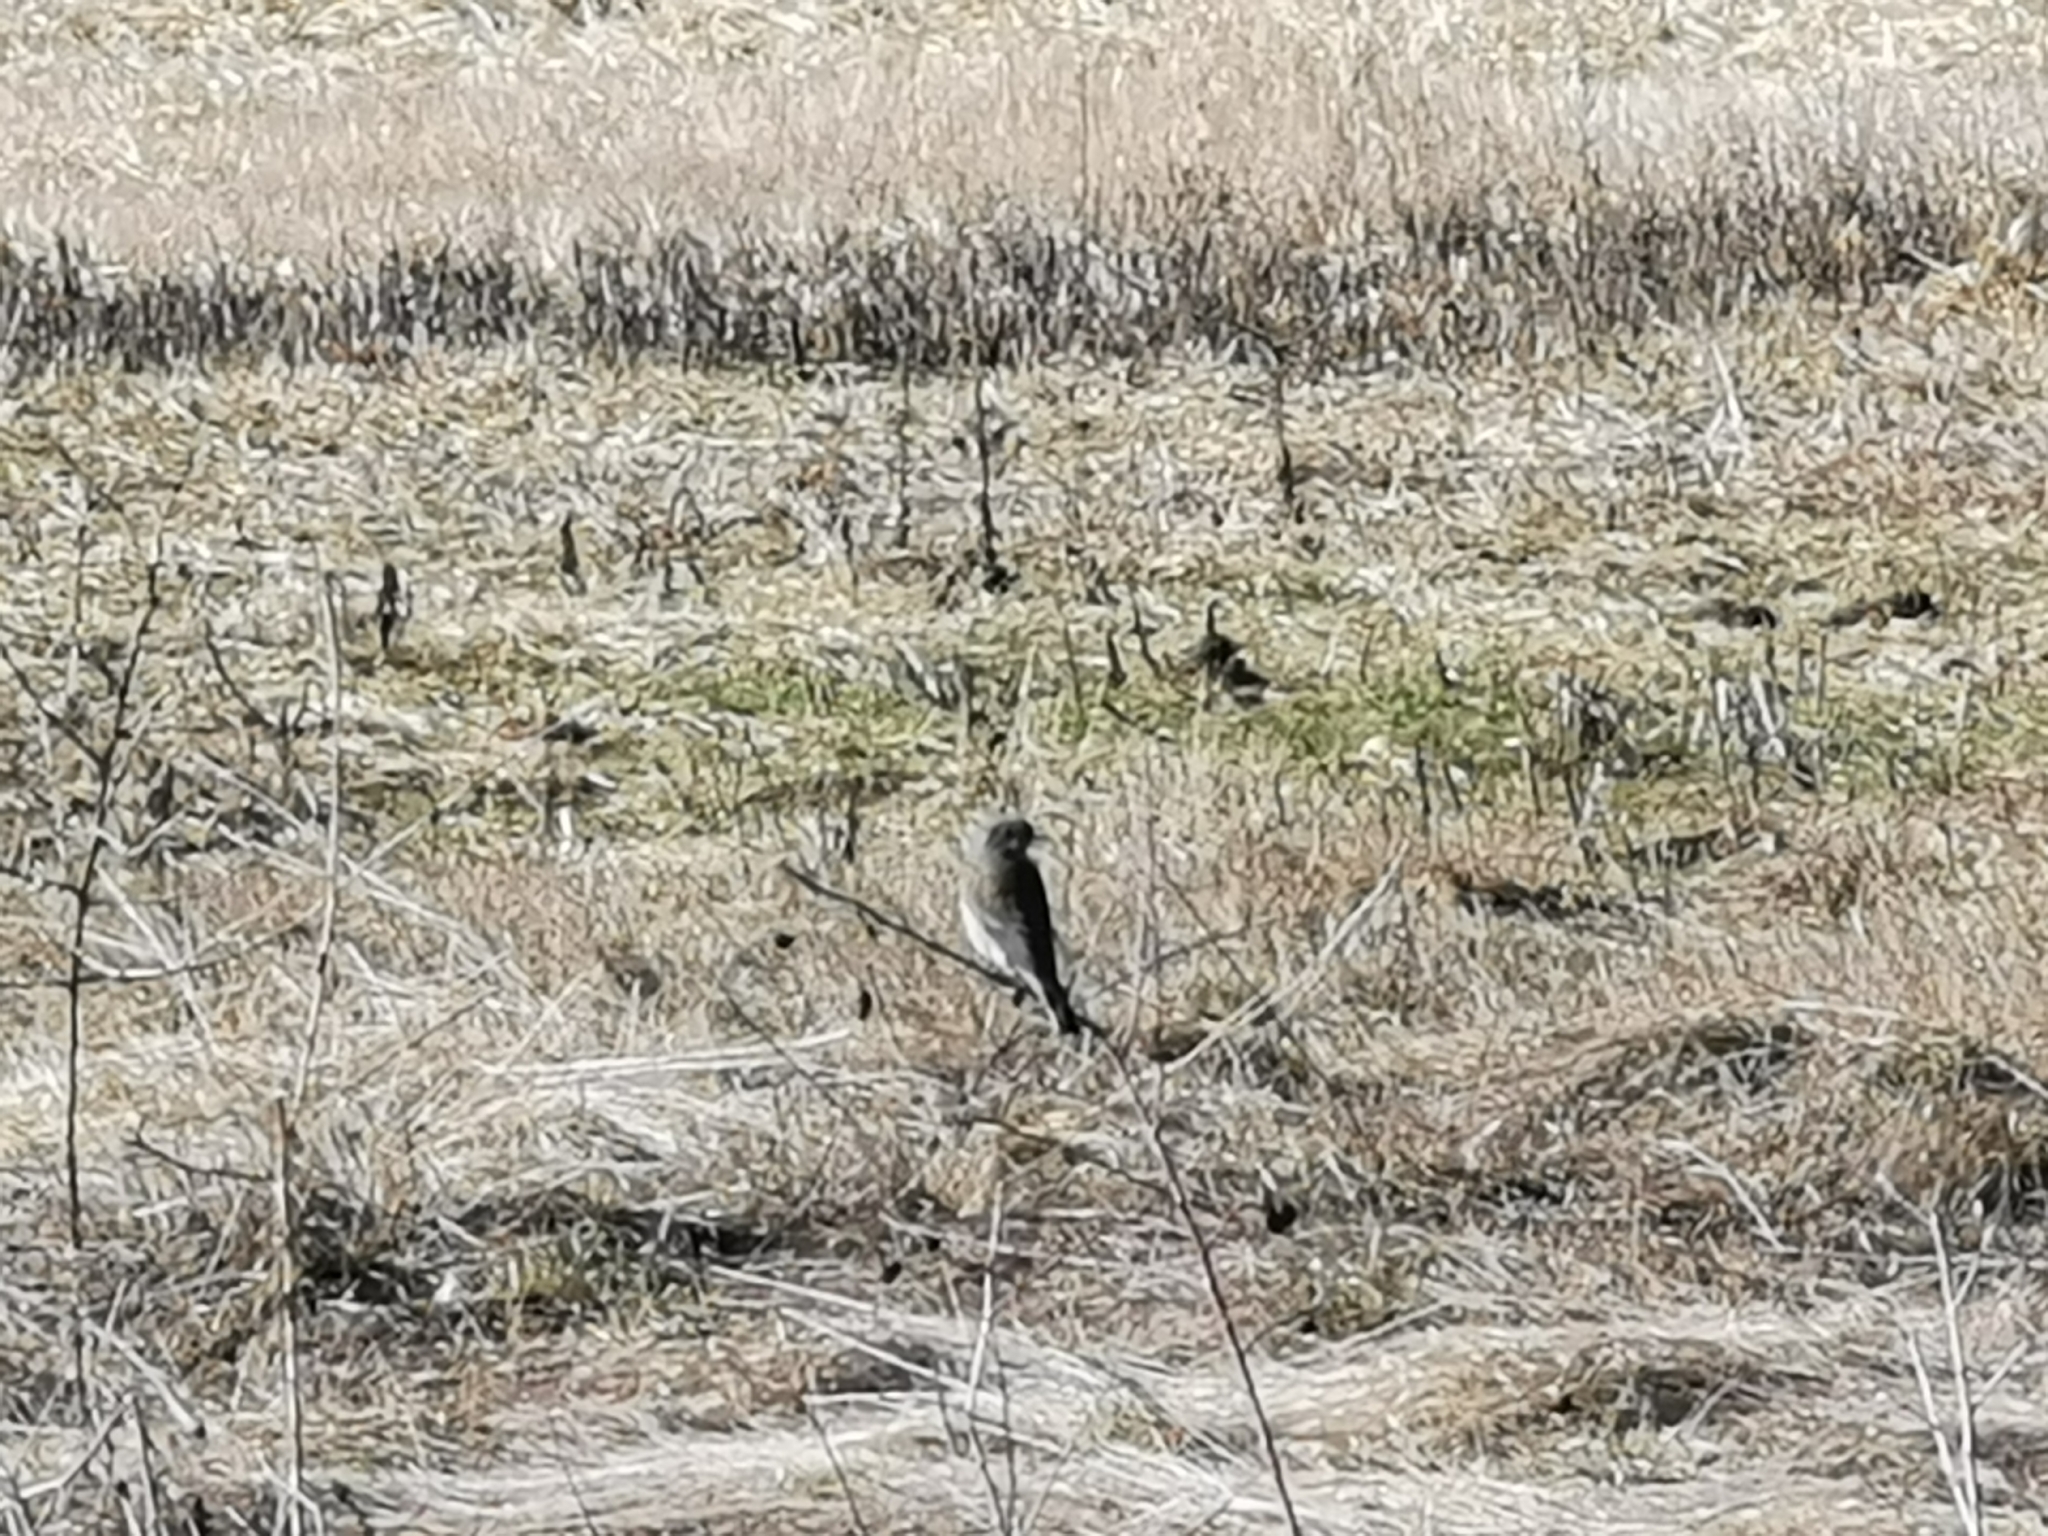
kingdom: Animalia
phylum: Chordata
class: Aves
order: Passeriformes
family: Turdidae
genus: Sialia
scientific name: Sialia mexicana
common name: Western bluebird
